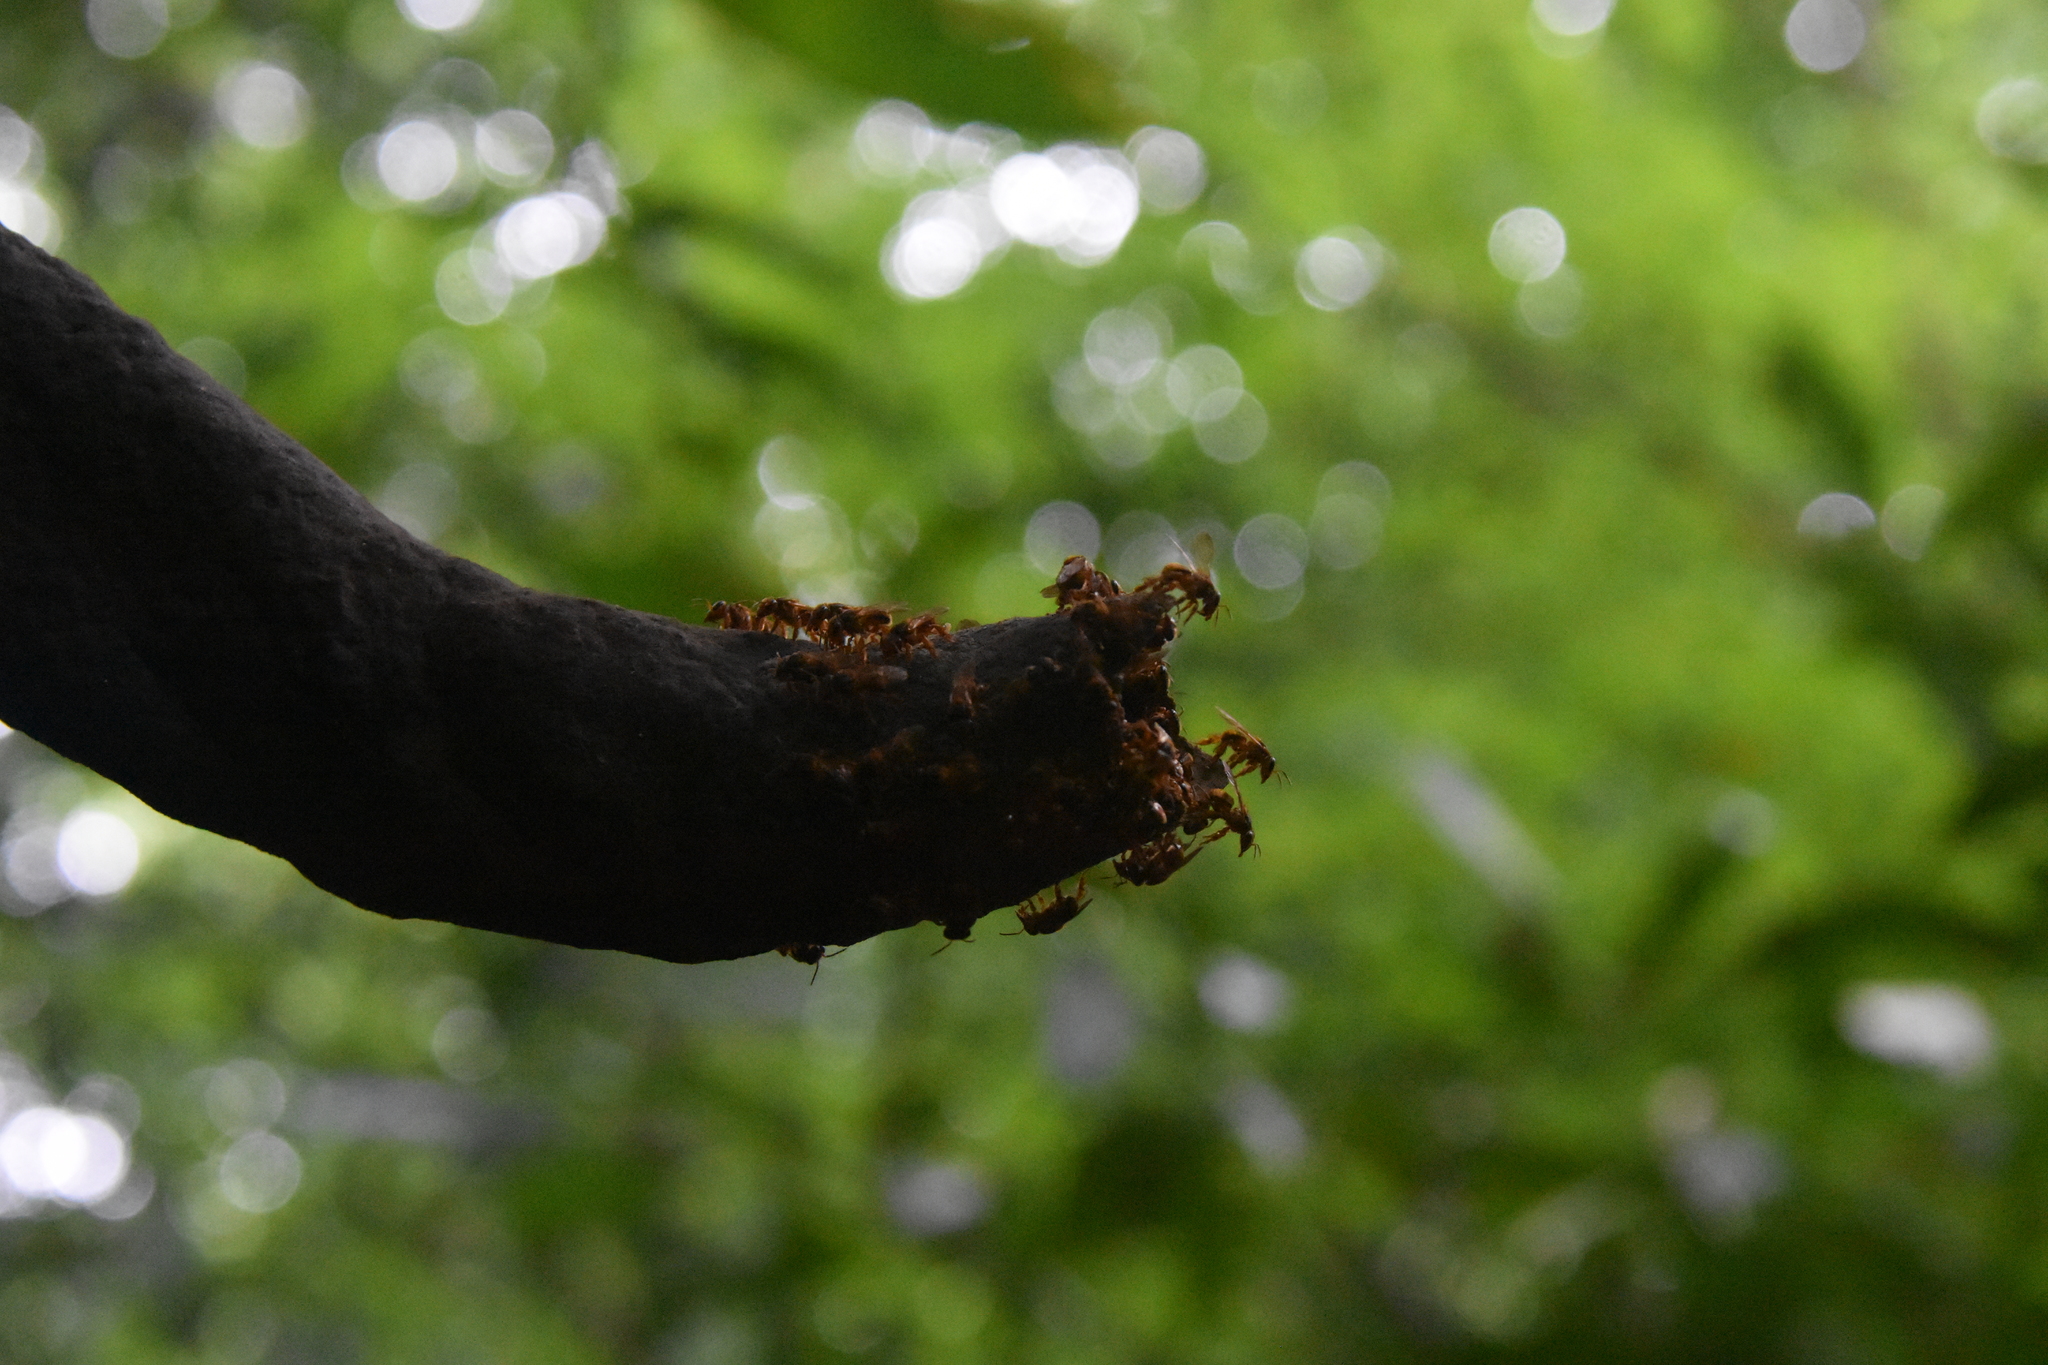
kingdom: Animalia
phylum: Arthropoda
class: Insecta
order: Hymenoptera
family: Apidae
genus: Scaptotrigona
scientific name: Scaptotrigona pectoralis
